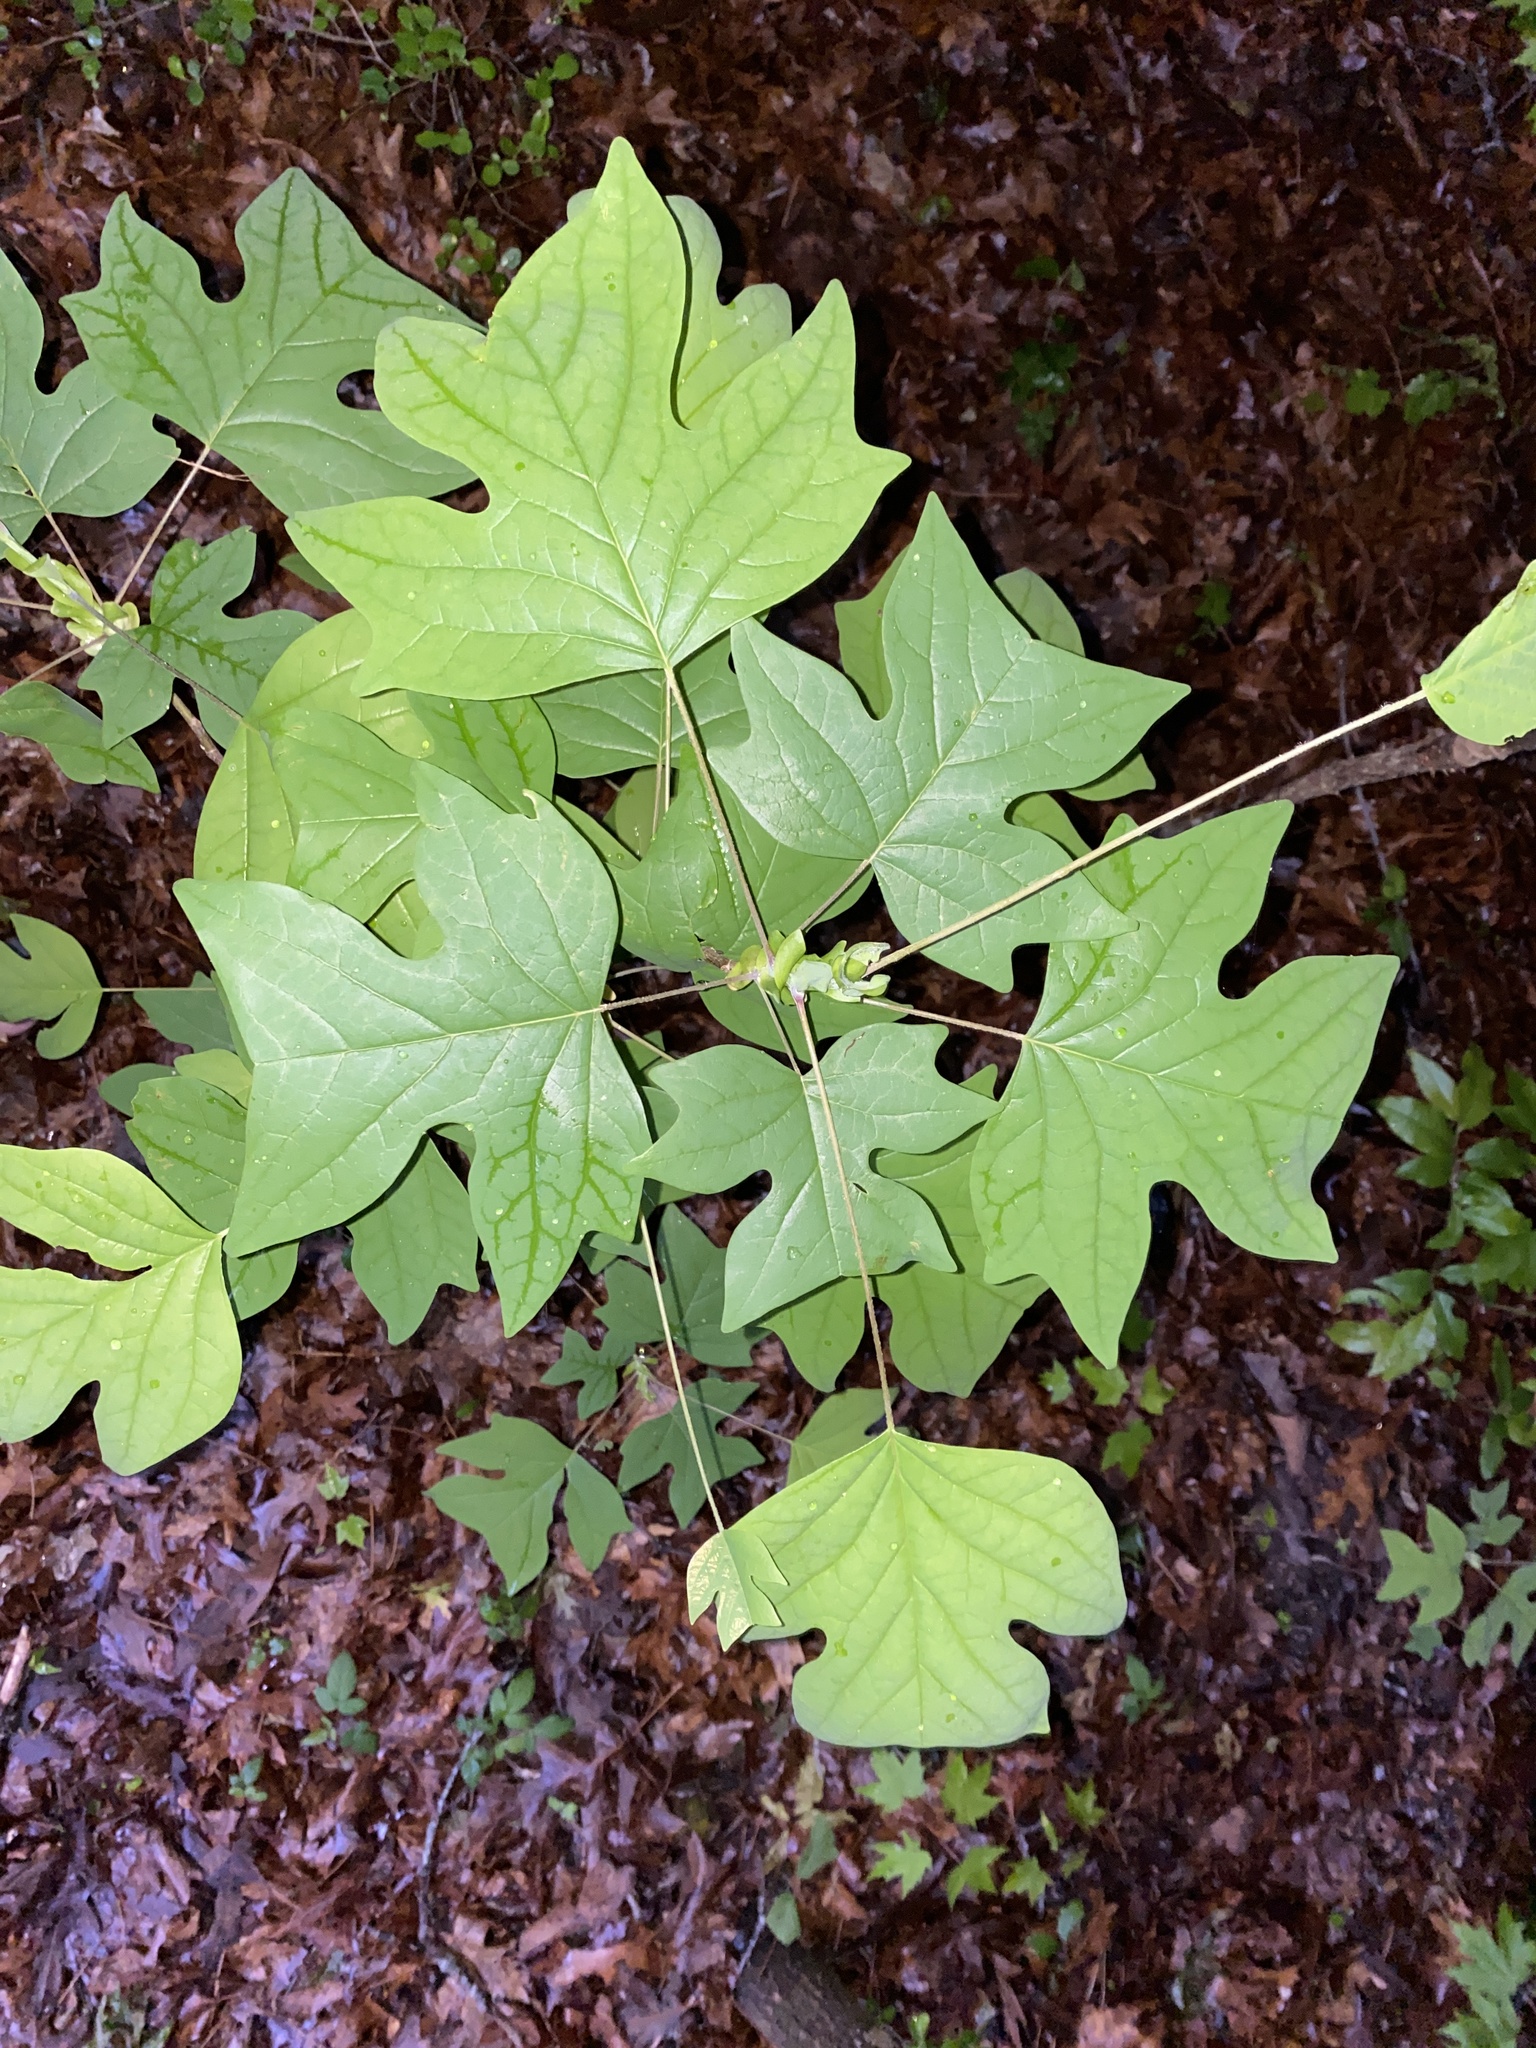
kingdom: Plantae
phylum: Tracheophyta
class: Magnoliopsida
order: Magnoliales
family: Magnoliaceae
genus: Liriodendron
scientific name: Liriodendron tulipifera
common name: Tulip tree
